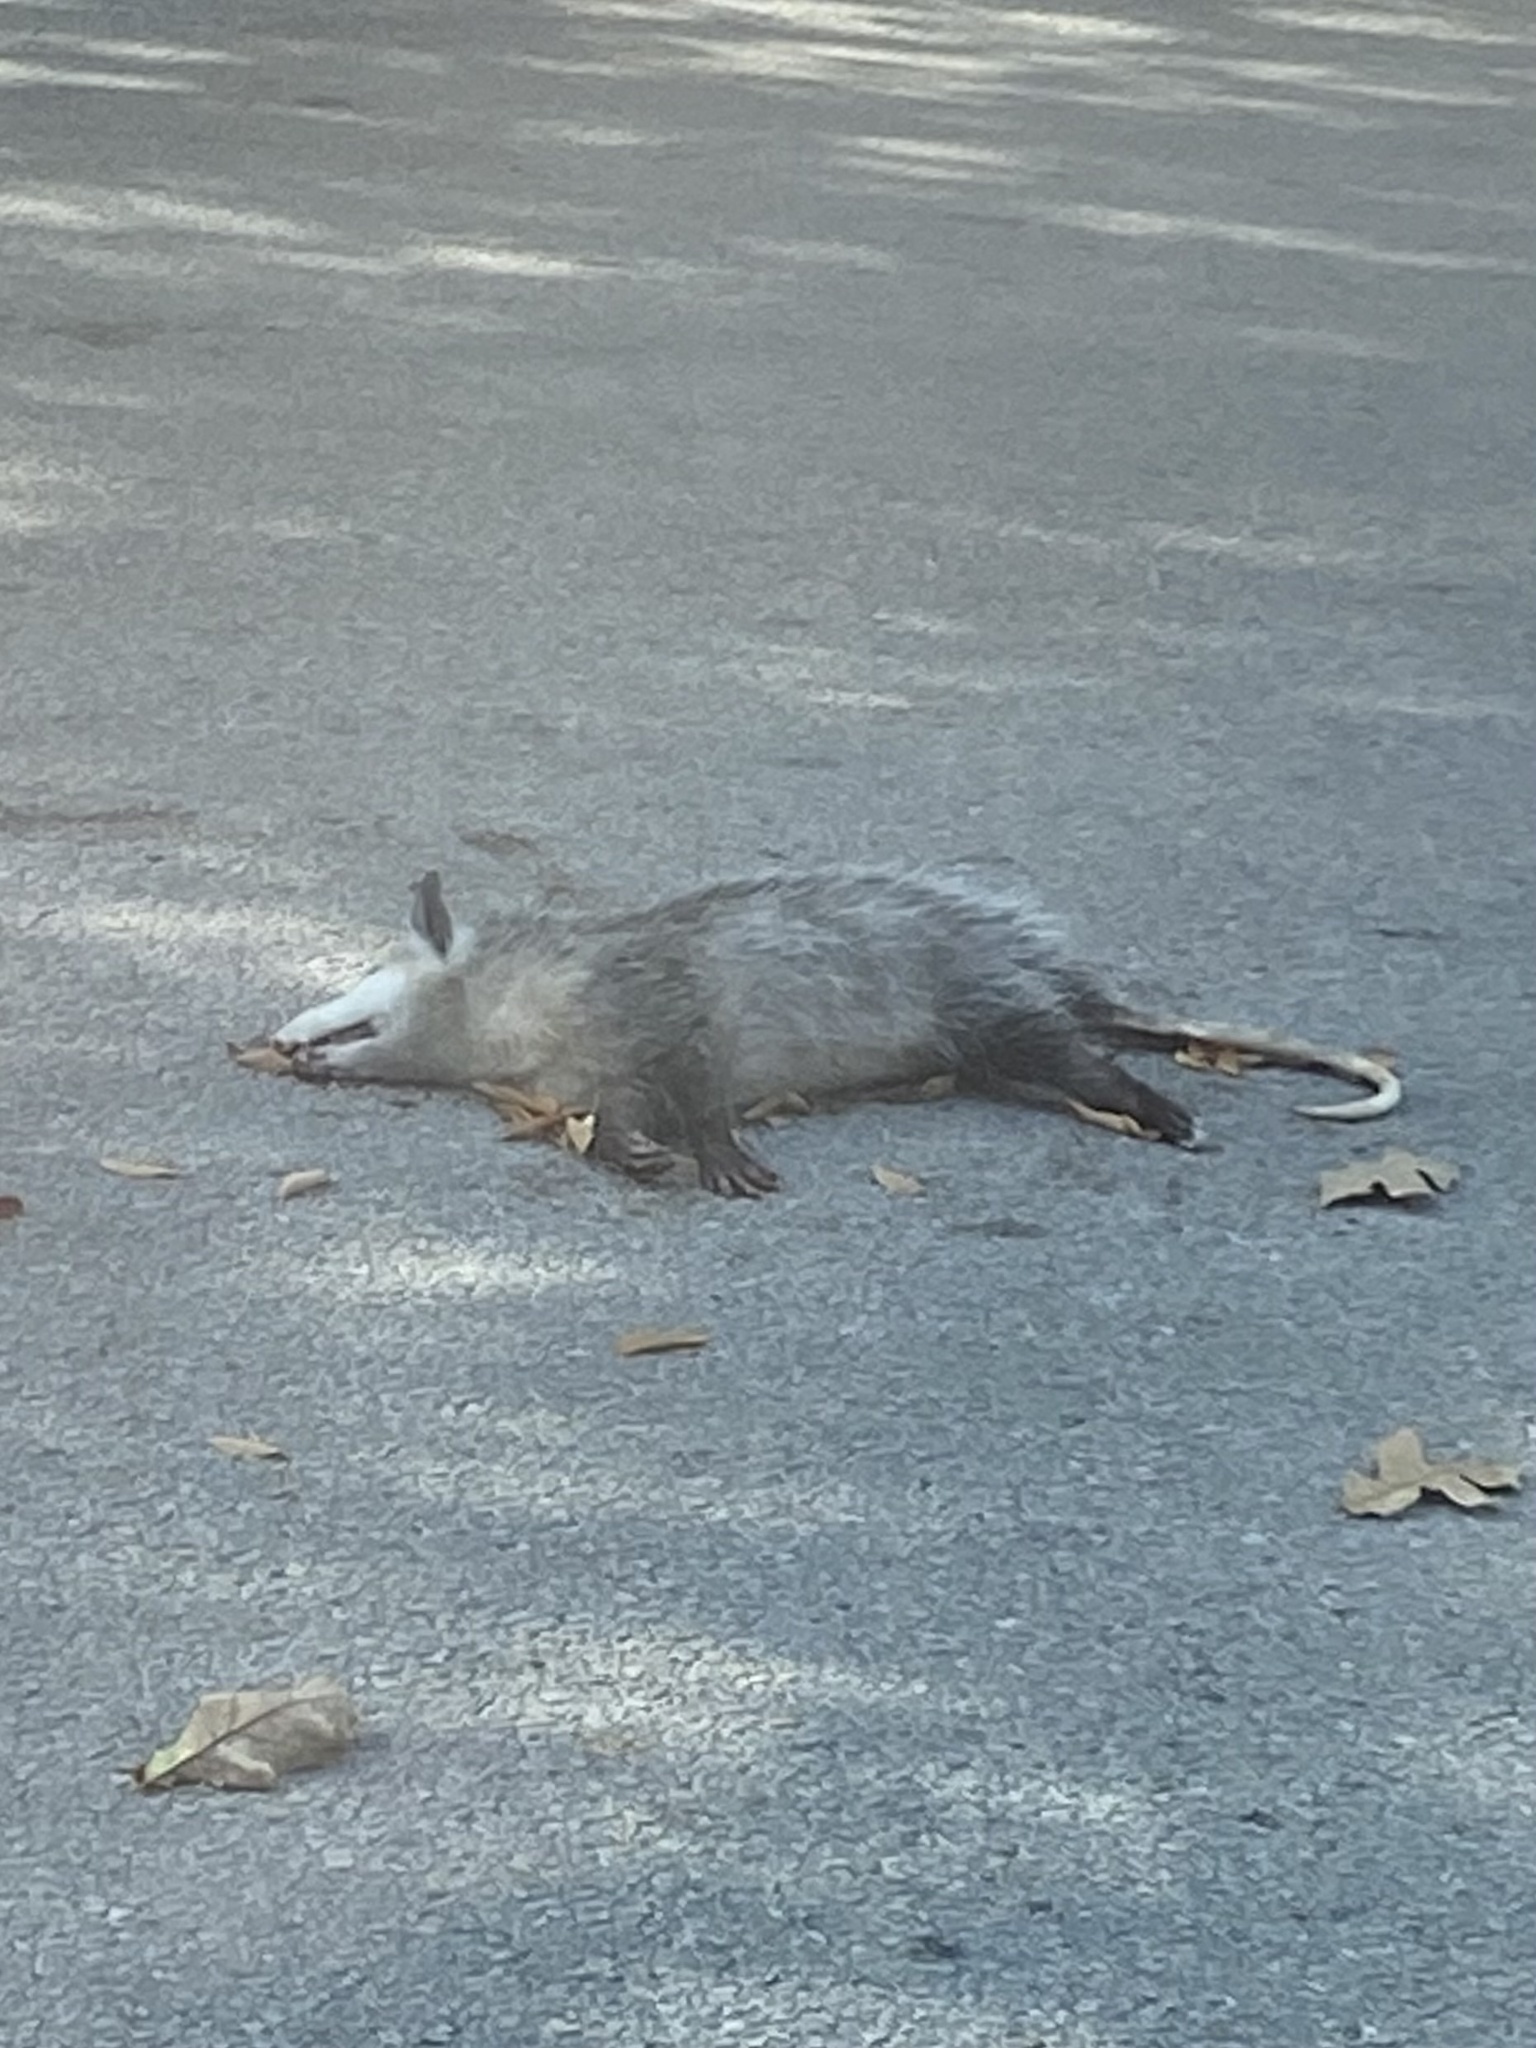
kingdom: Animalia
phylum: Chordata
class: Mammalia
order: Didelphimorphia
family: Didelphidae
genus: Didelphis
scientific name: Didelphis virginiana
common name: Virginia opossum
